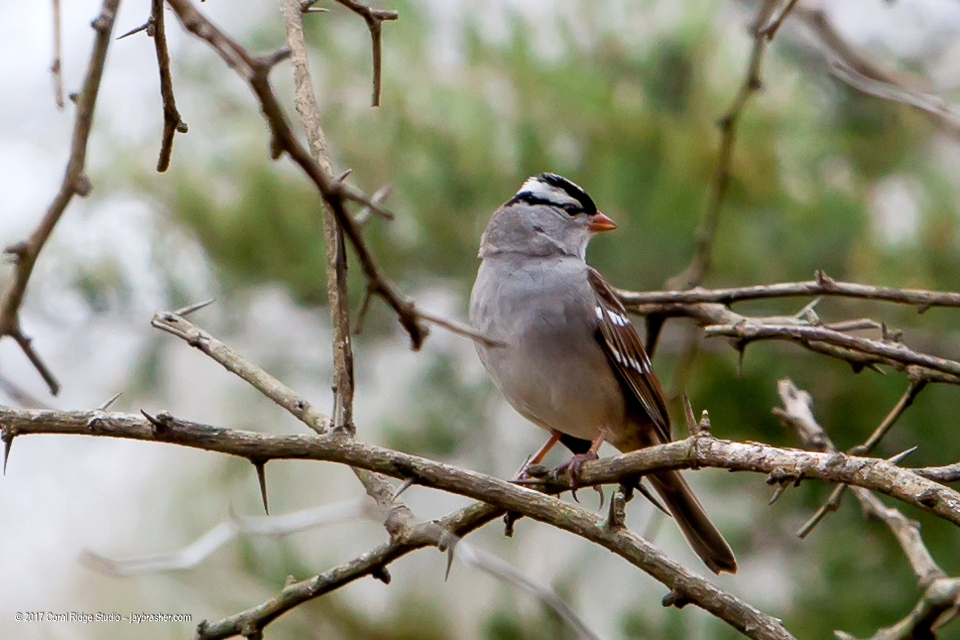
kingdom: Animalia
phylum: Chordata
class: Aves
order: Passeriformes
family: Passerellidae
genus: Zonotrichia
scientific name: Zonotrichia leucophrys
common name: White-crowned sparrow
